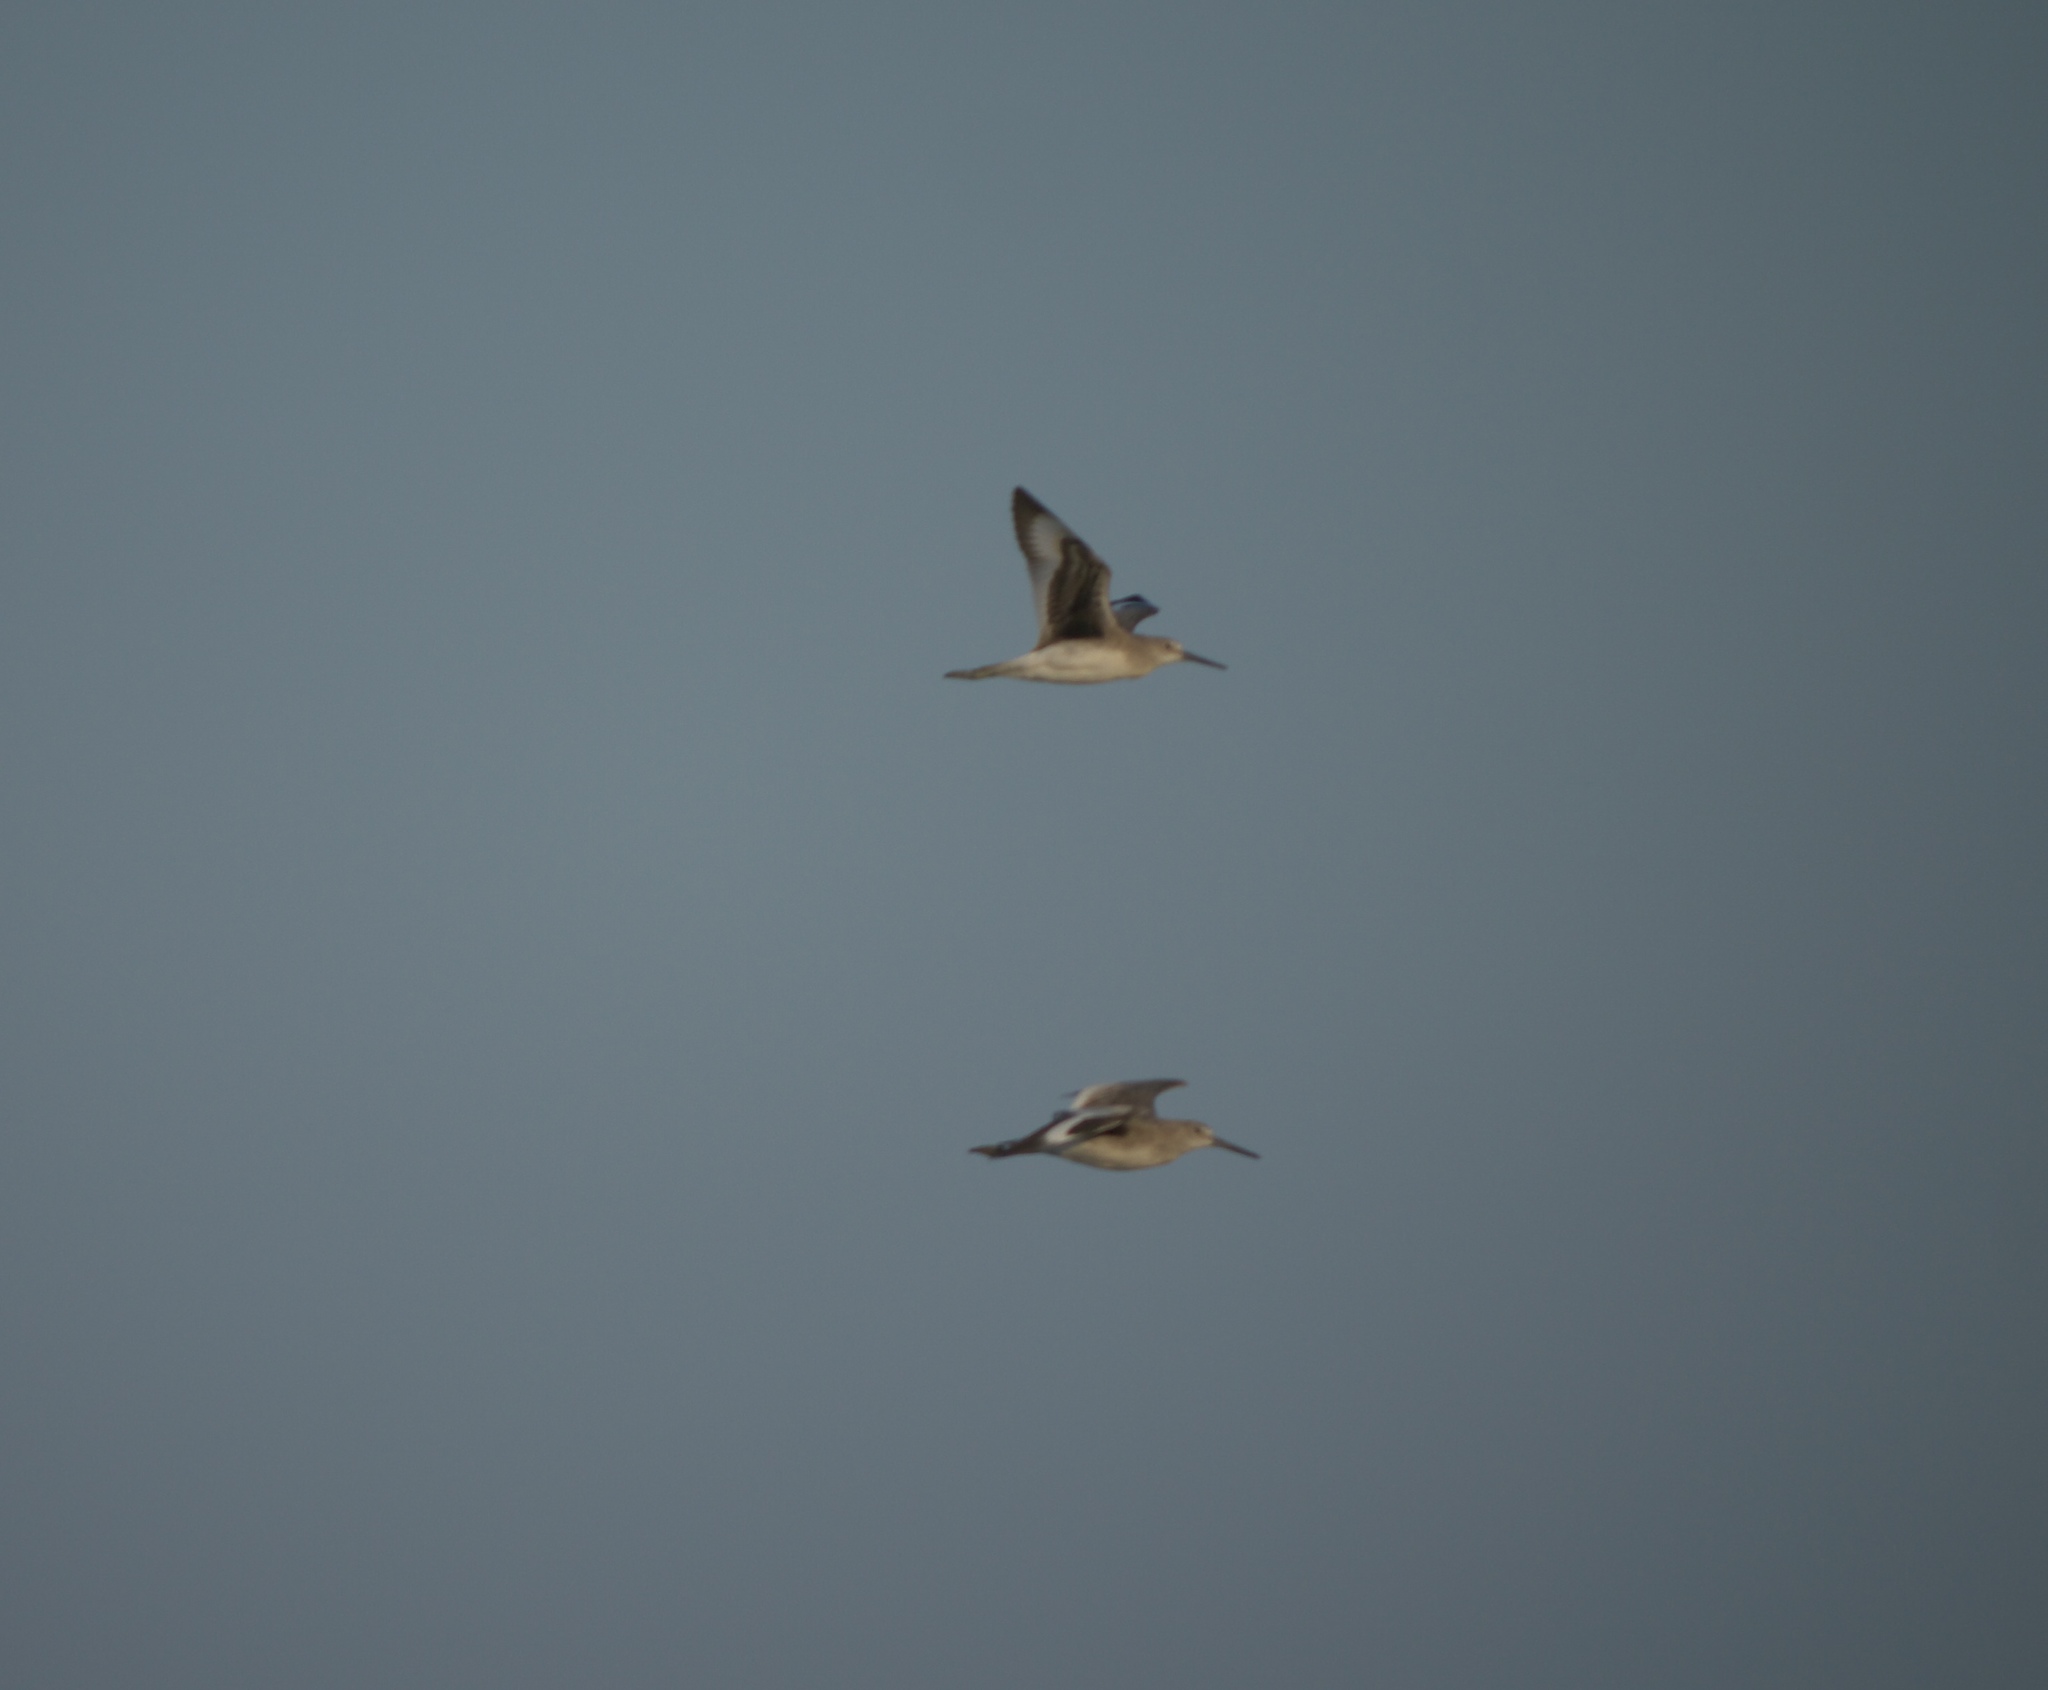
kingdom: Animalia
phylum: Chordata
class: Aves
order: Charadriiformes
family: Scolopacidae
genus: Tringa
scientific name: Tringa semipalmata
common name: Willet
